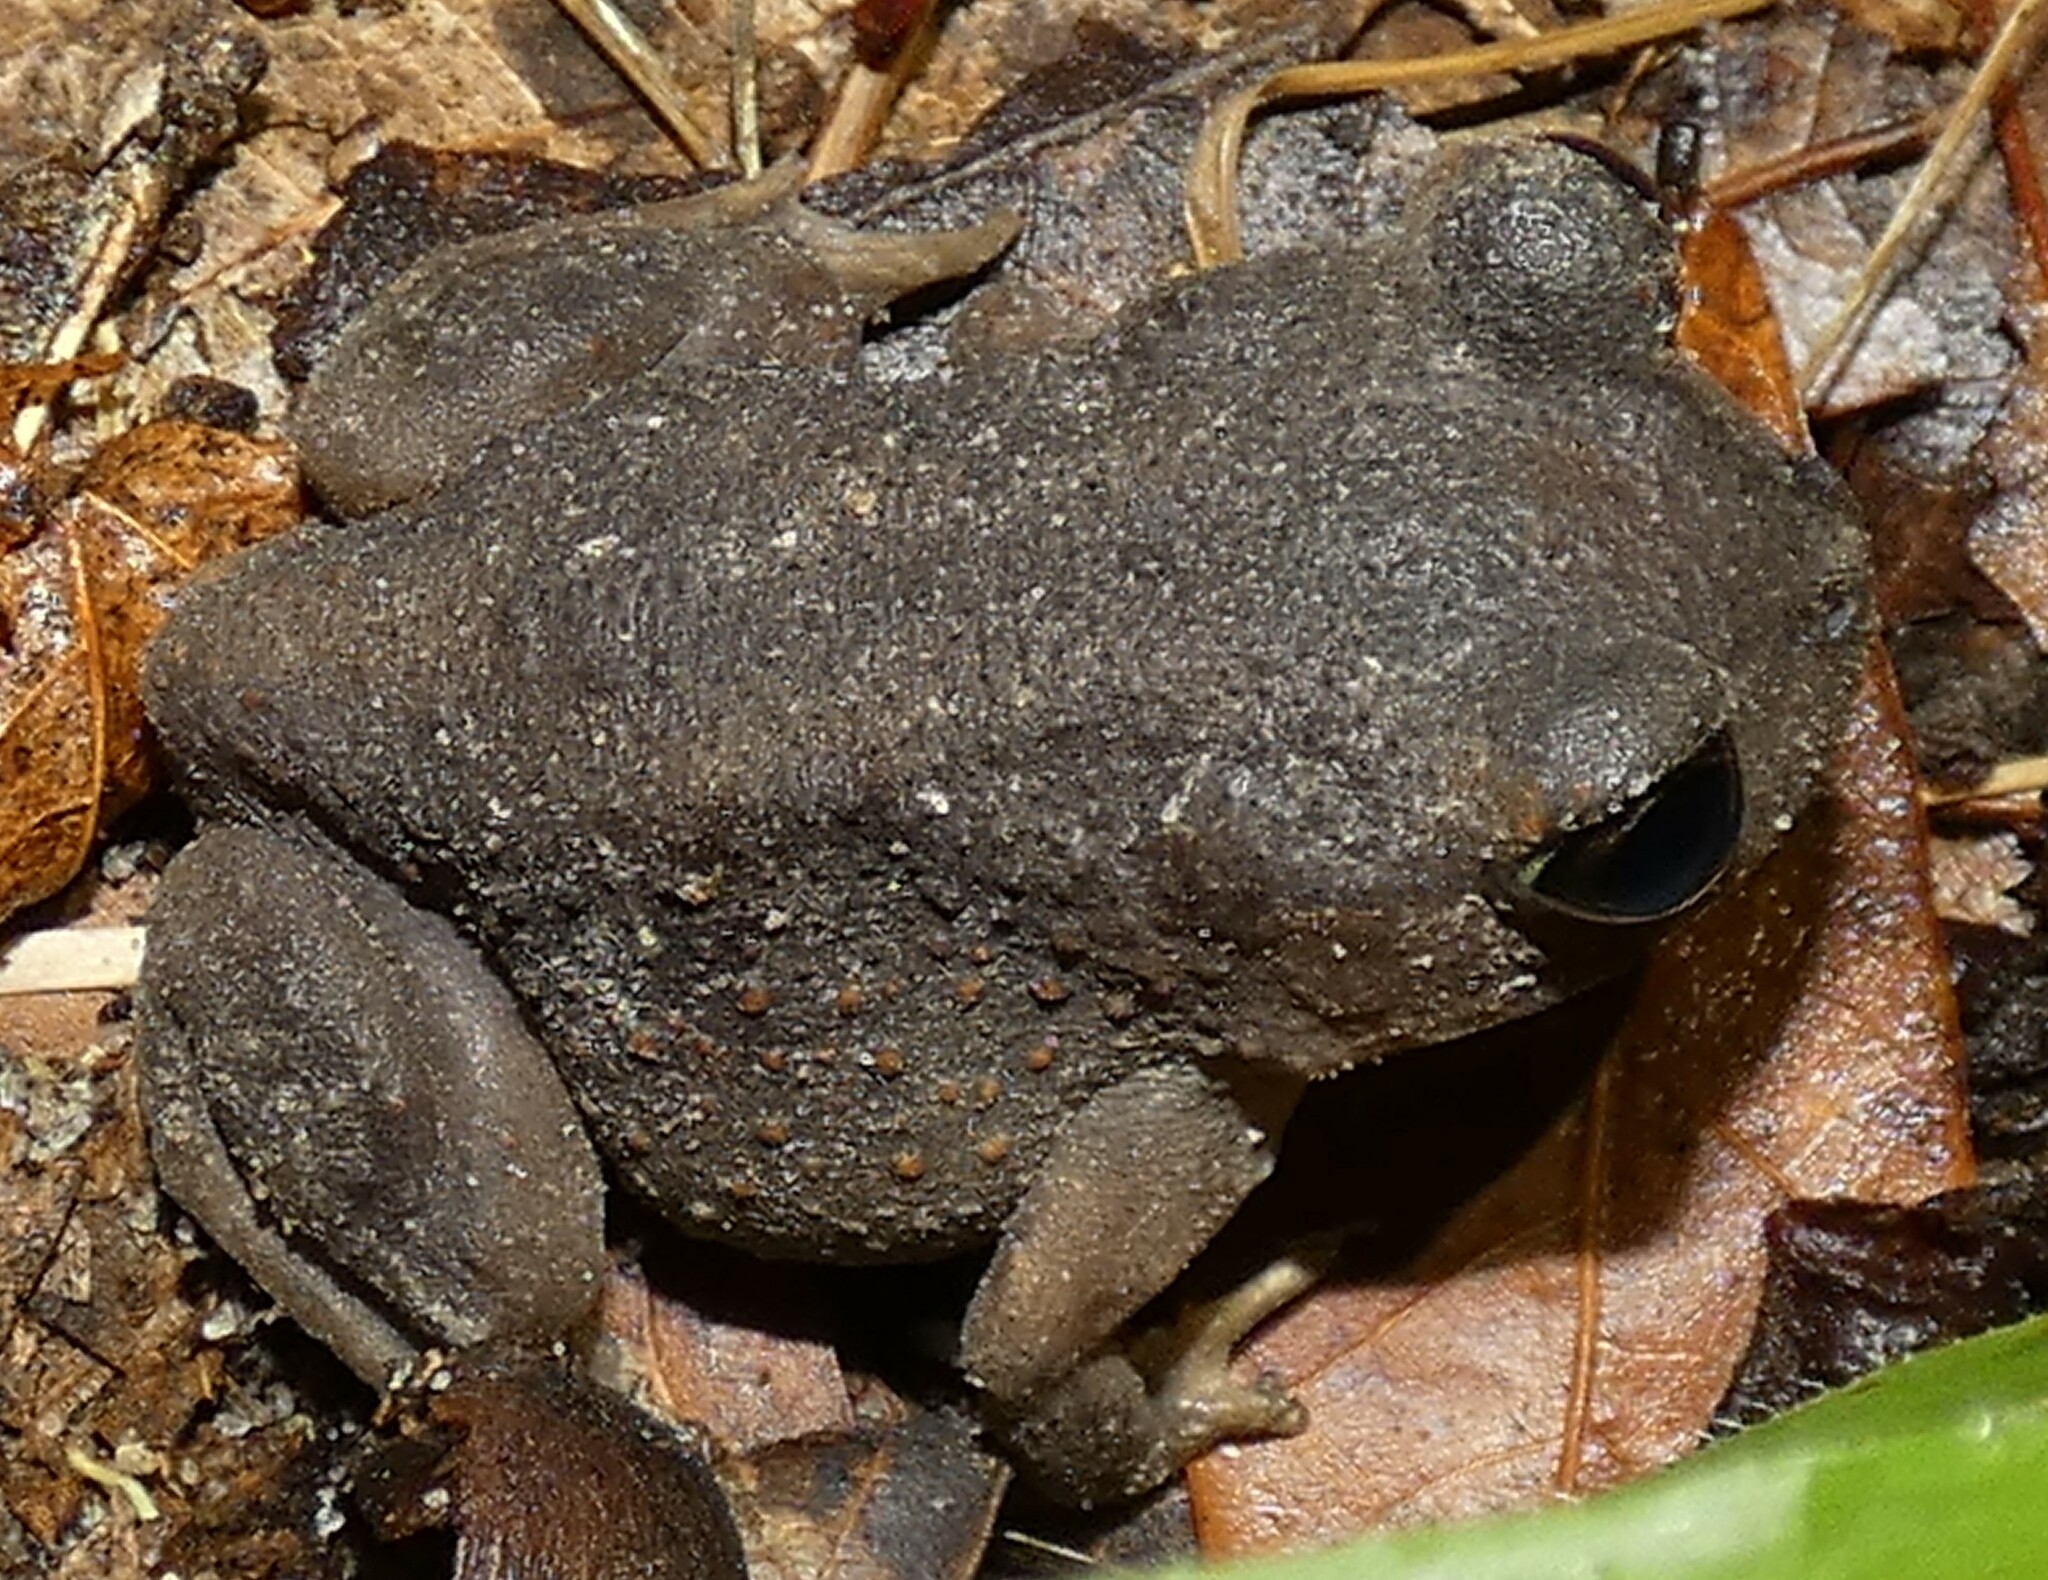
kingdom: Animalia
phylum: Chordata
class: Amphibia
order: Anura
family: Scaphiopodidae
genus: Scaphiopus
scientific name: Scaphiopus holbrookii
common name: Eastern spadefoot toad
